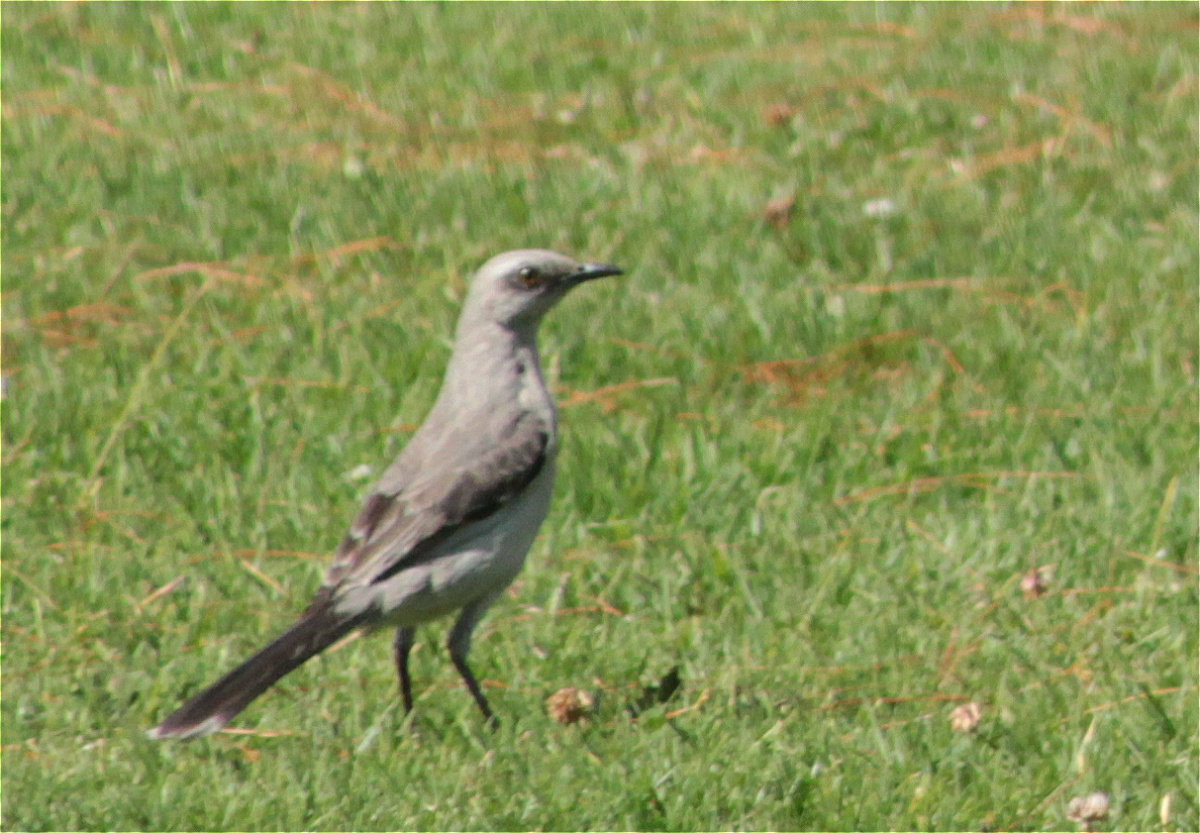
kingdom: Animalia
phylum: Chordata
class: Aves
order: Passeriformes
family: Mimidae
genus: Mimus
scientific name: Mimus gilvus
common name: Tropical mockingbird
